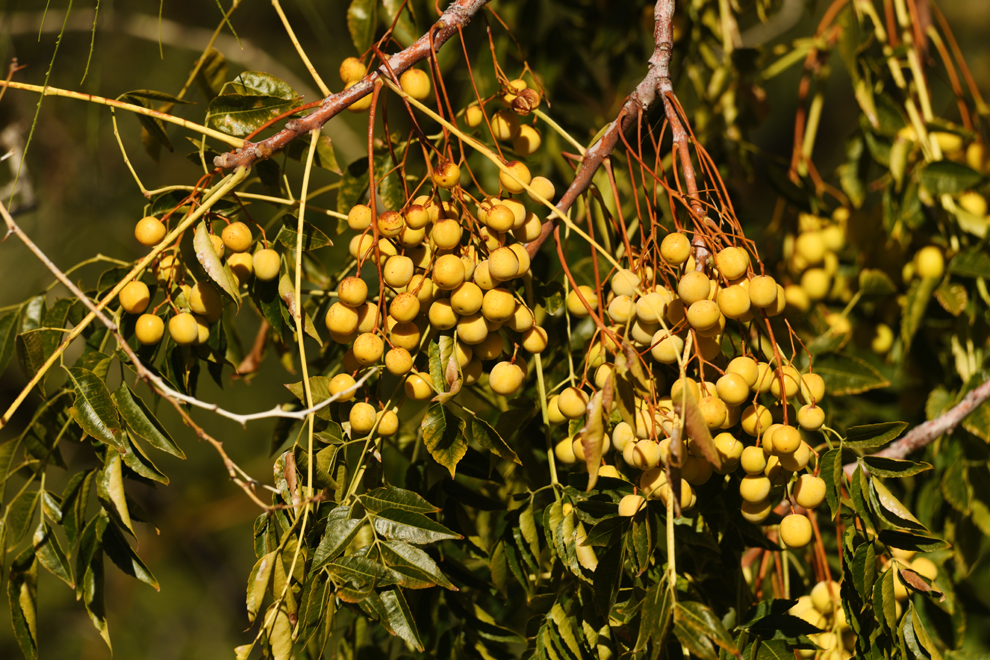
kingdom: Plantae
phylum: Tracheophyta
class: Magnoliopsida
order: Sapindales
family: Meliaceae
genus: Melia
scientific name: Melia azedarach
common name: Chinaberrytree
